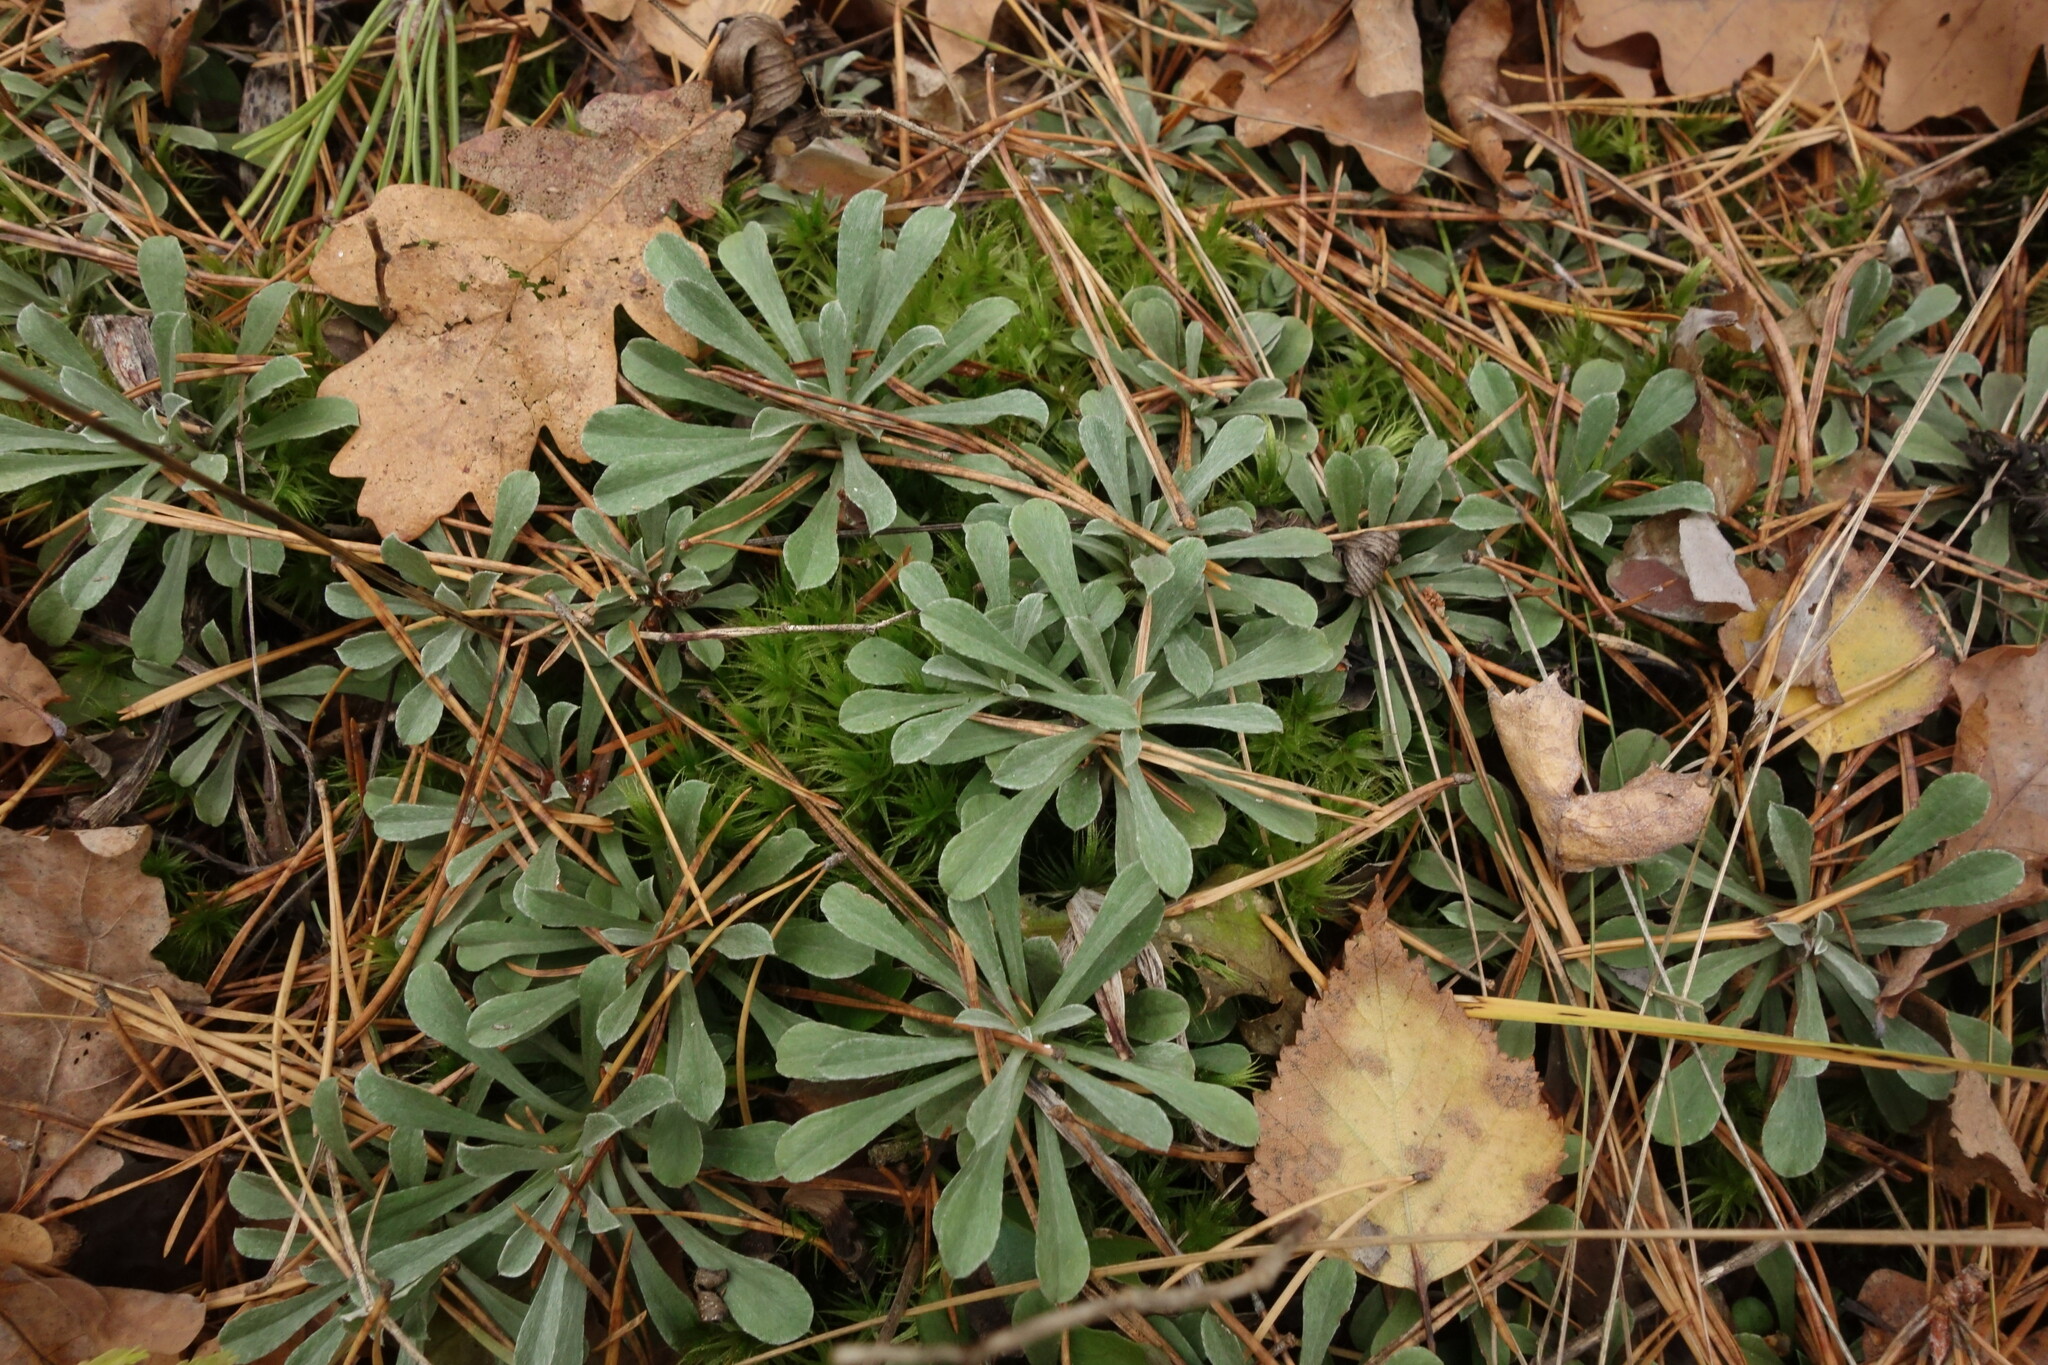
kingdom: Plantae
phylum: Tracheophyta
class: Magnoliopsida
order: Asterales
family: Asteraceae
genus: Antennaria
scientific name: Antennaria dioica
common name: Mountain everlasting
